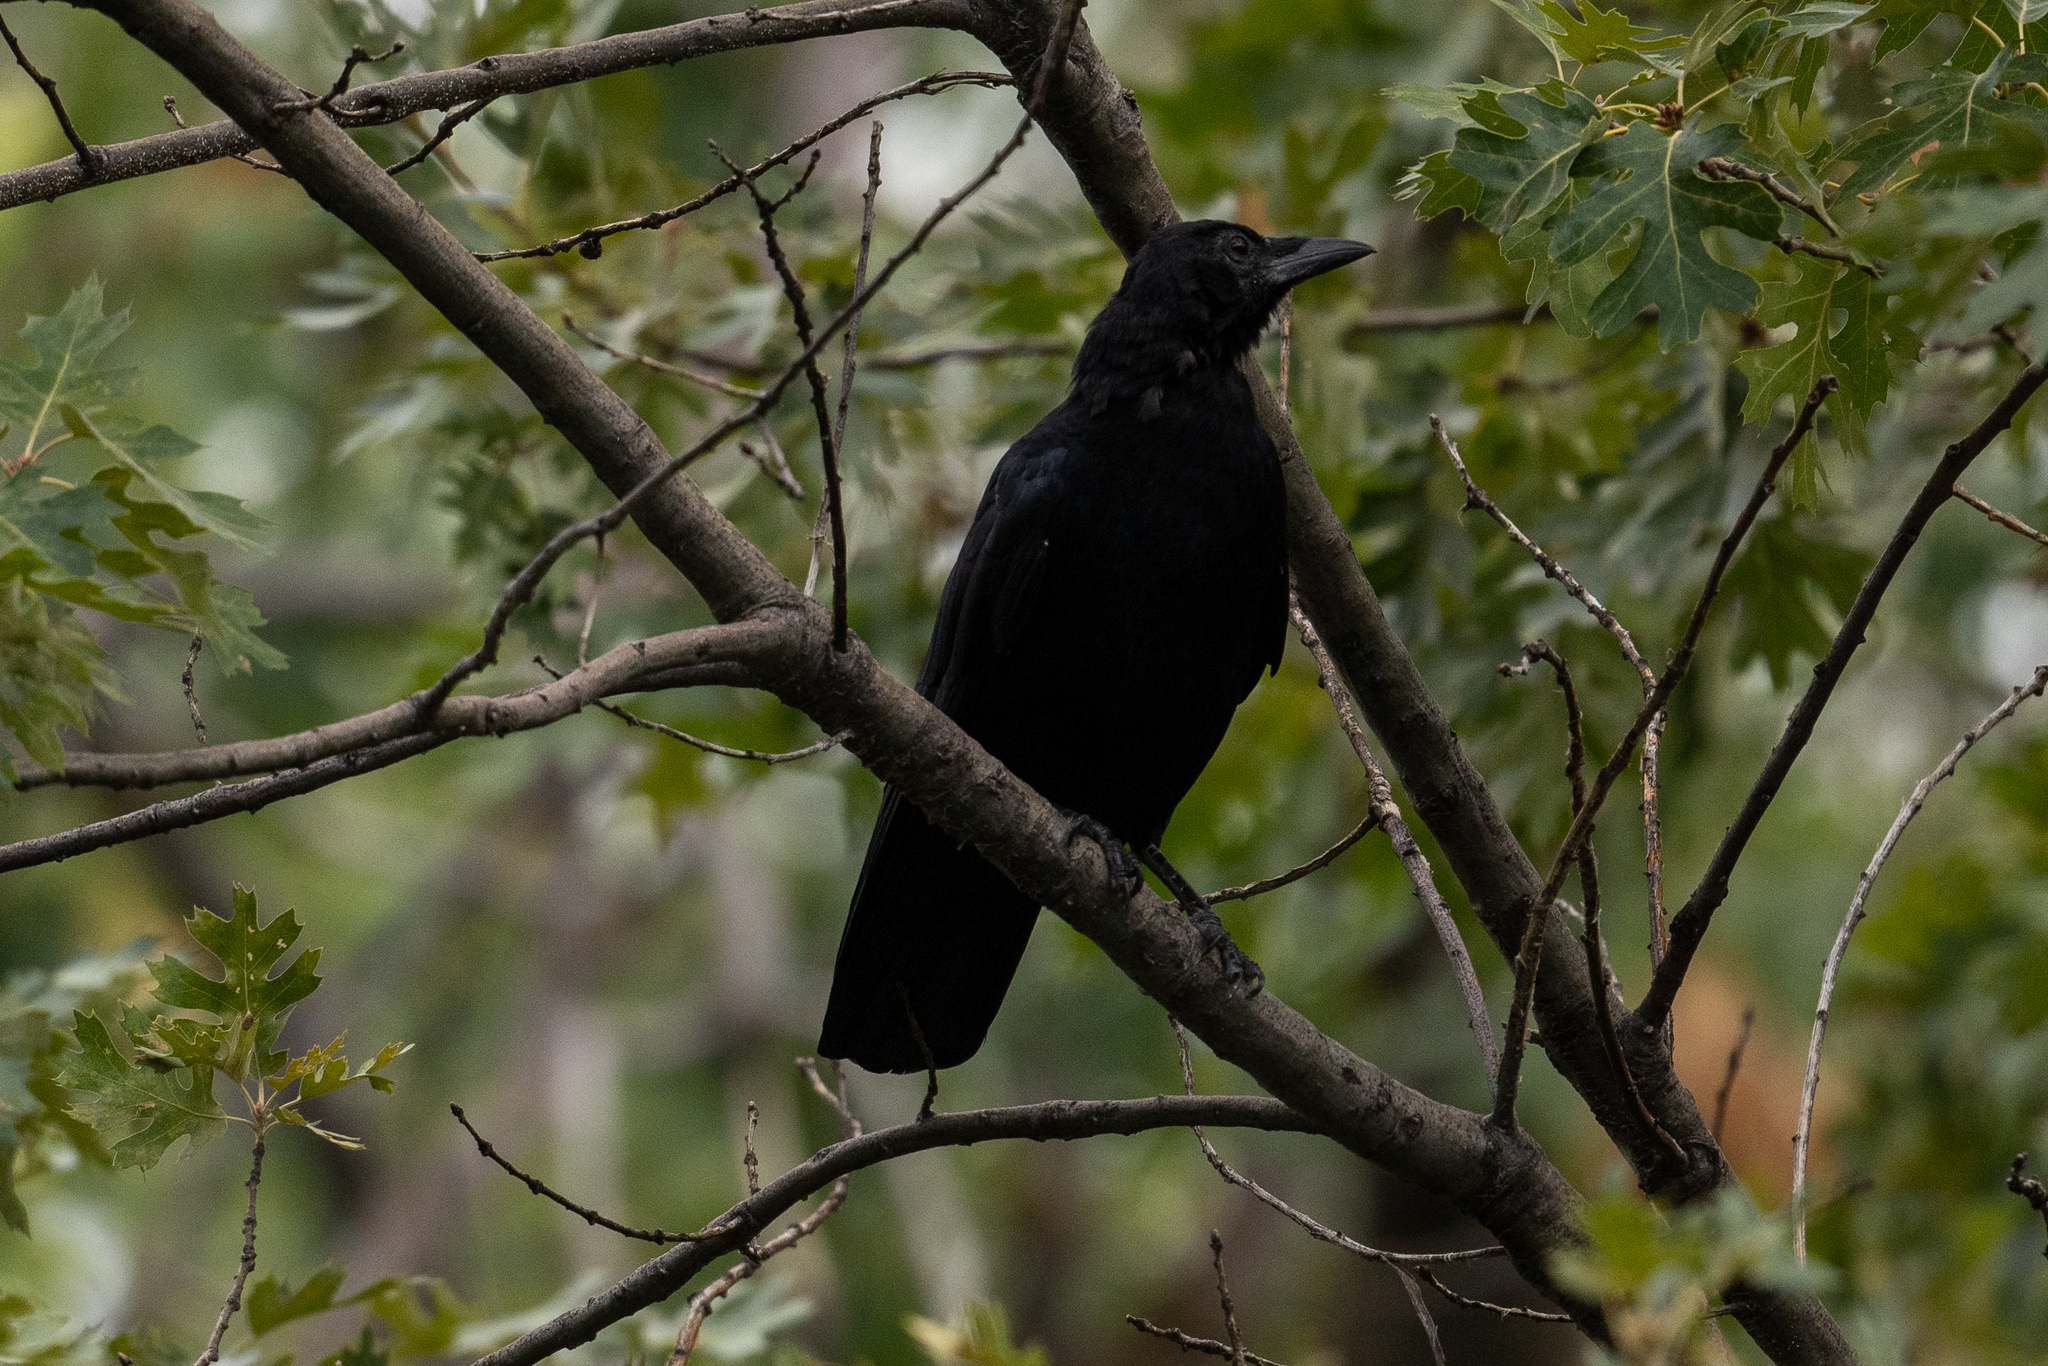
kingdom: Animalia
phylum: Chordata
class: Aves
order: Passeriformes
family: Corvidae
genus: Corvus
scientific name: Corvus brachyrhynchos
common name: American crow
